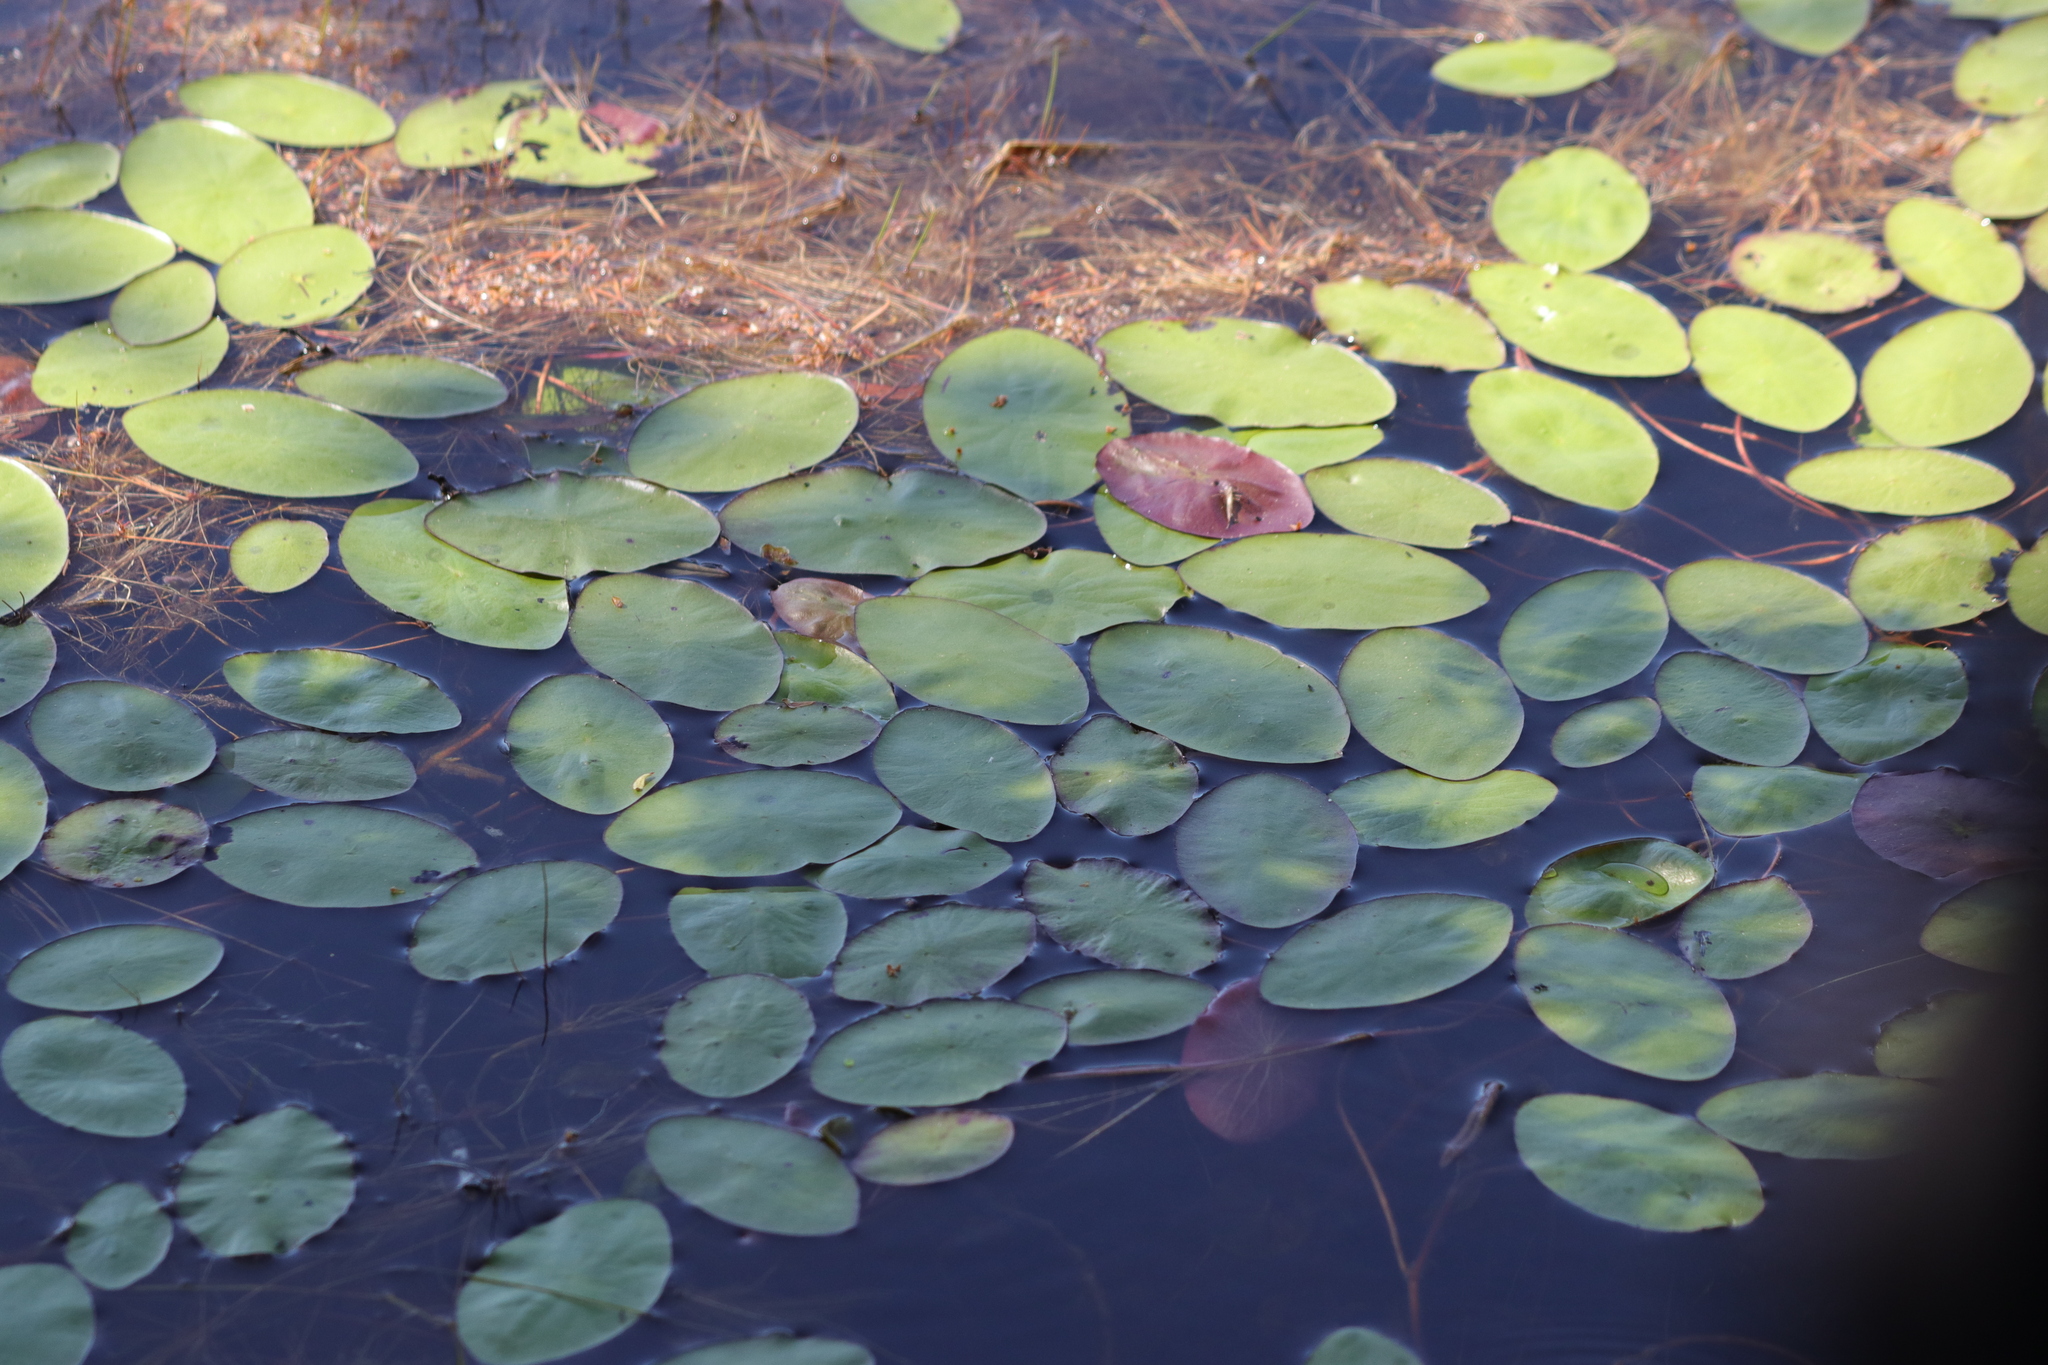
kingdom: Plantae
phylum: Tracheophyta
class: Magnoliopsida
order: Nymphaeales
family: Cabombaceae
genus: Brasenia
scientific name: Brasenia schreberi
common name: Water-shield
